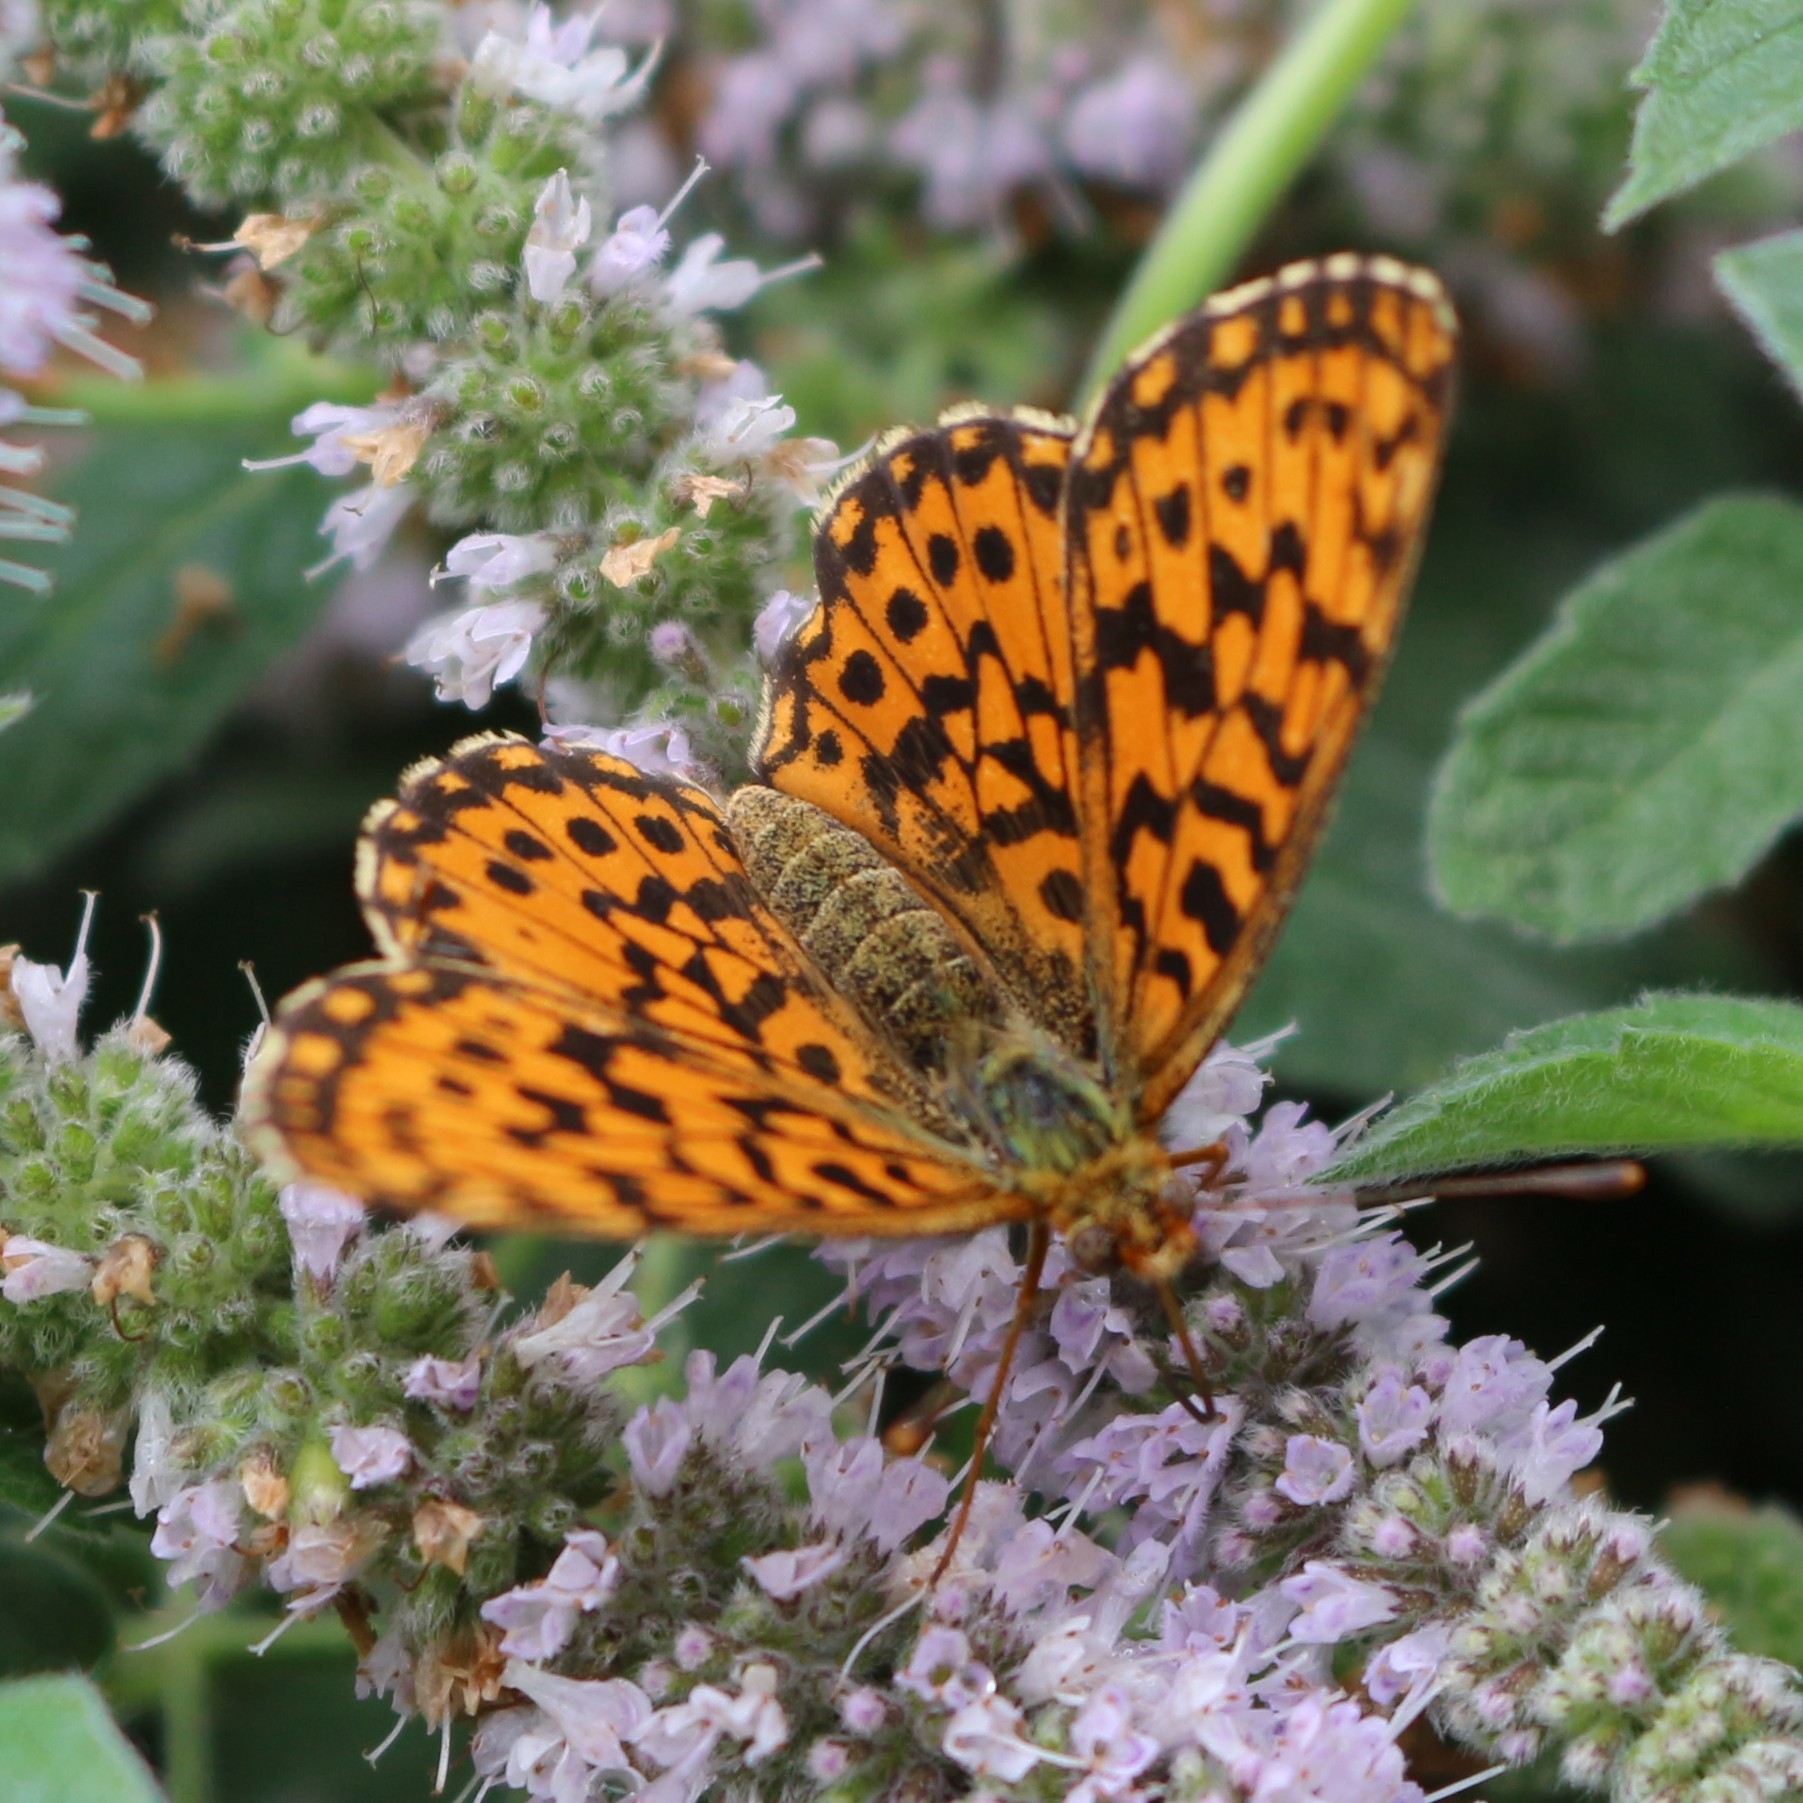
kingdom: Animalia
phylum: Arthropoda
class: Insecta
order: Lepidoptera
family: Nymphalidae
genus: Boloria
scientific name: Boloria dia
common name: Weaver's fritillary
